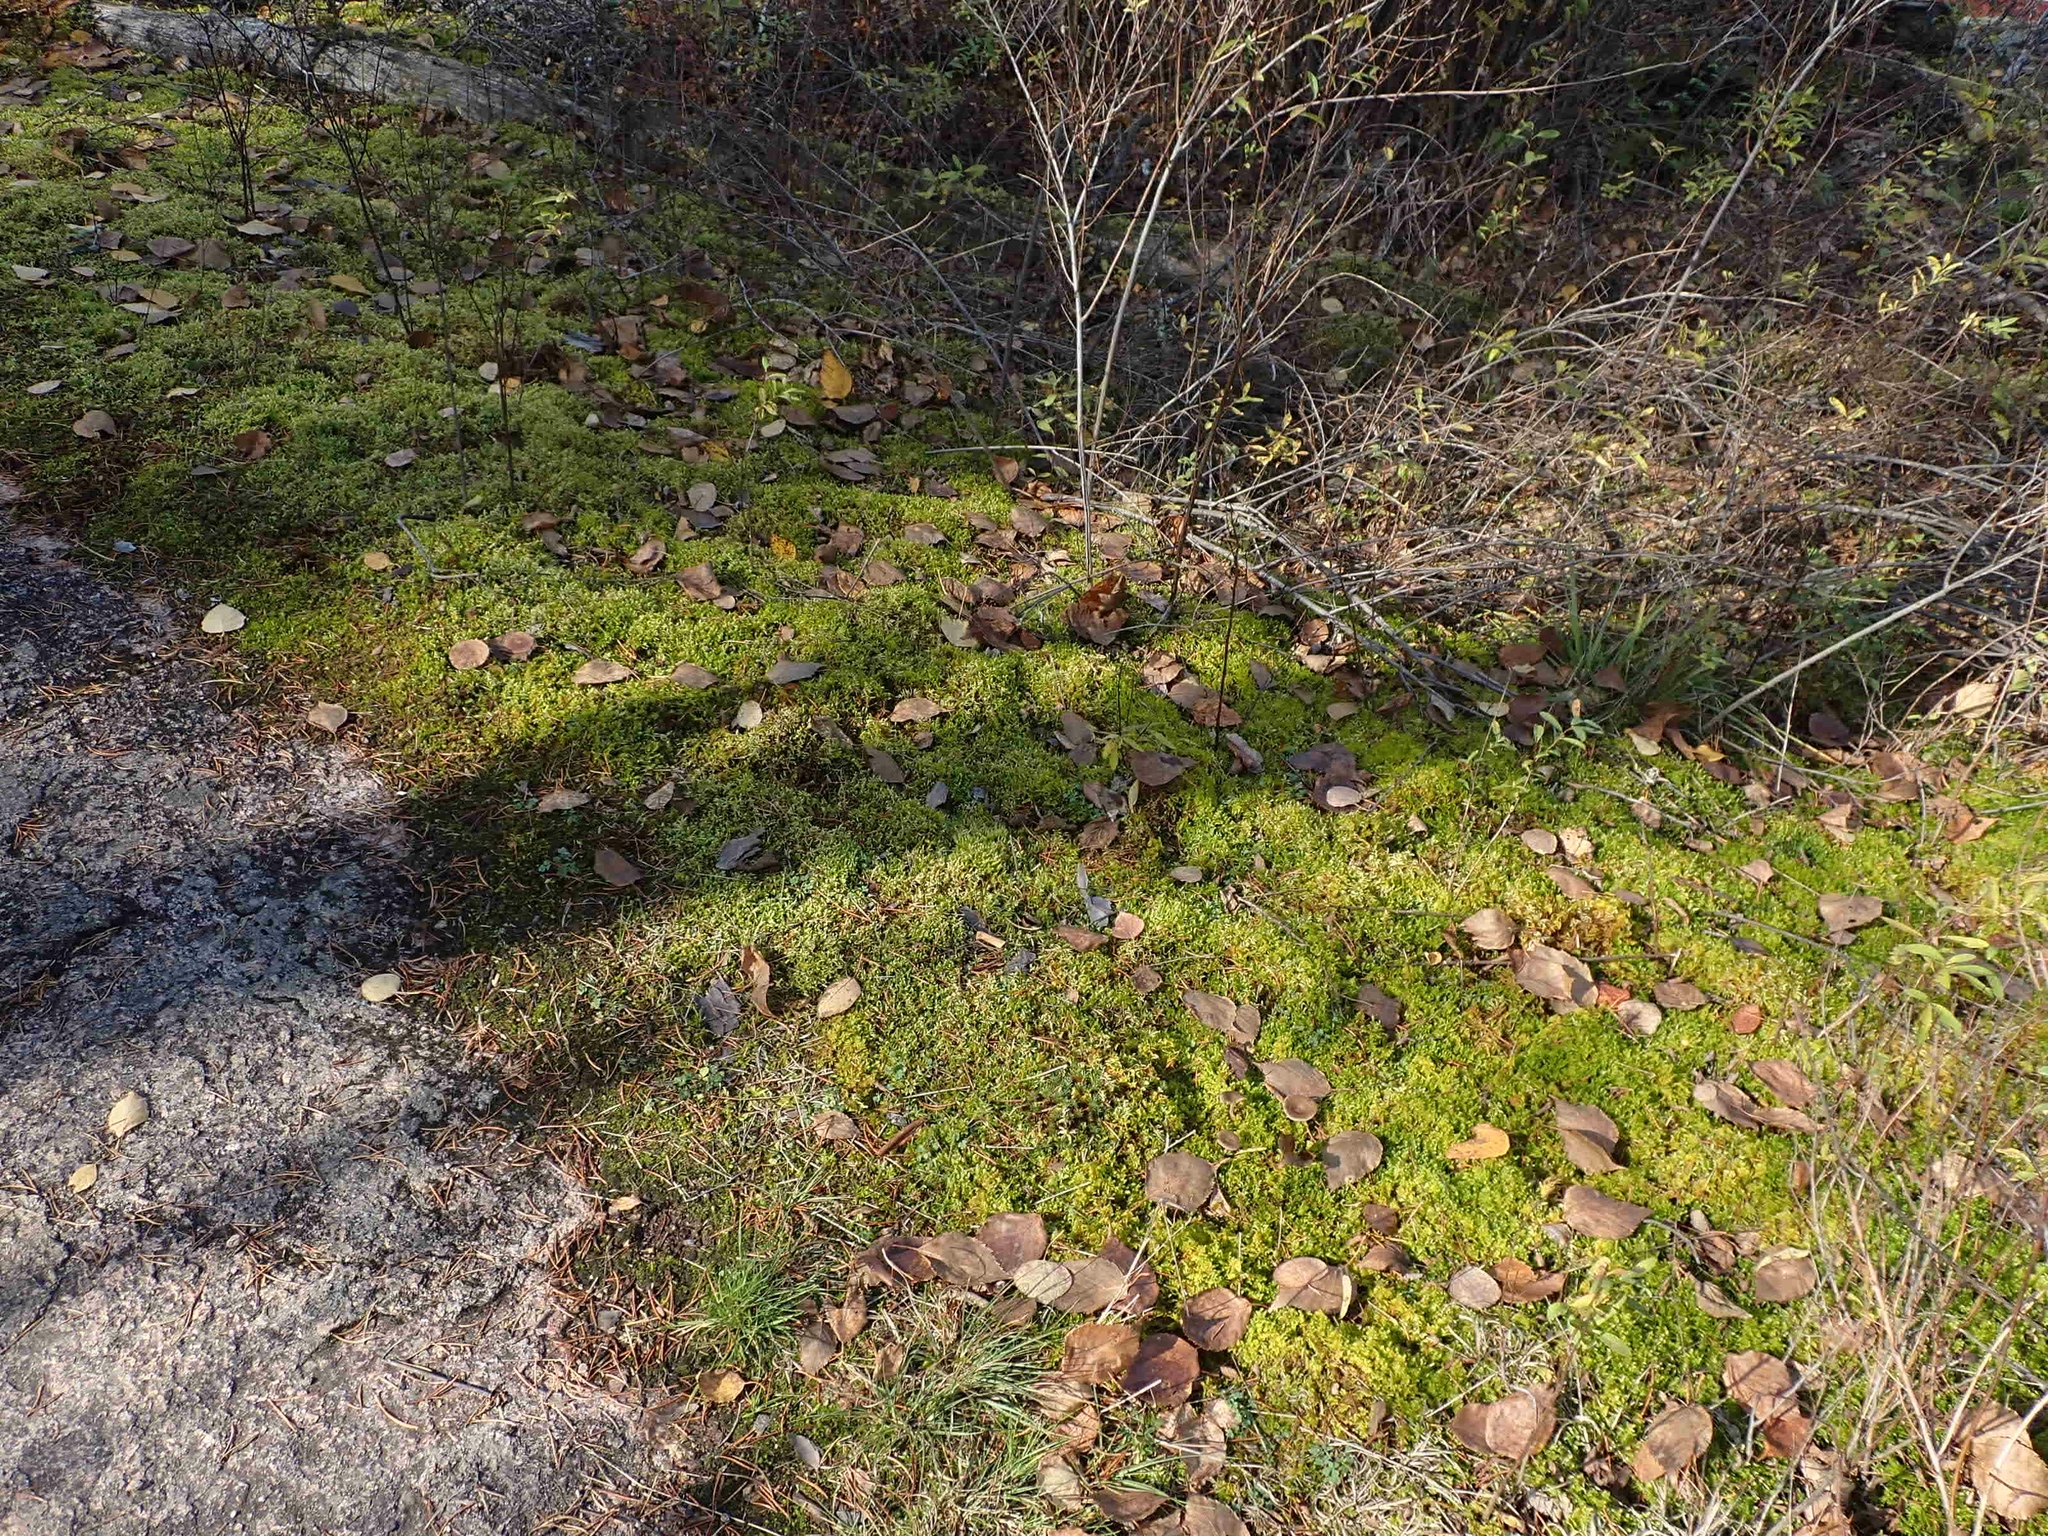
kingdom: Plantae
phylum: Bryophyta
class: Bryopsida
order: Hypnales
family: Hylocomiaceae
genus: Pleurozium
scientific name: Pleurozium schreberi
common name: Red-stemmed feather moss
